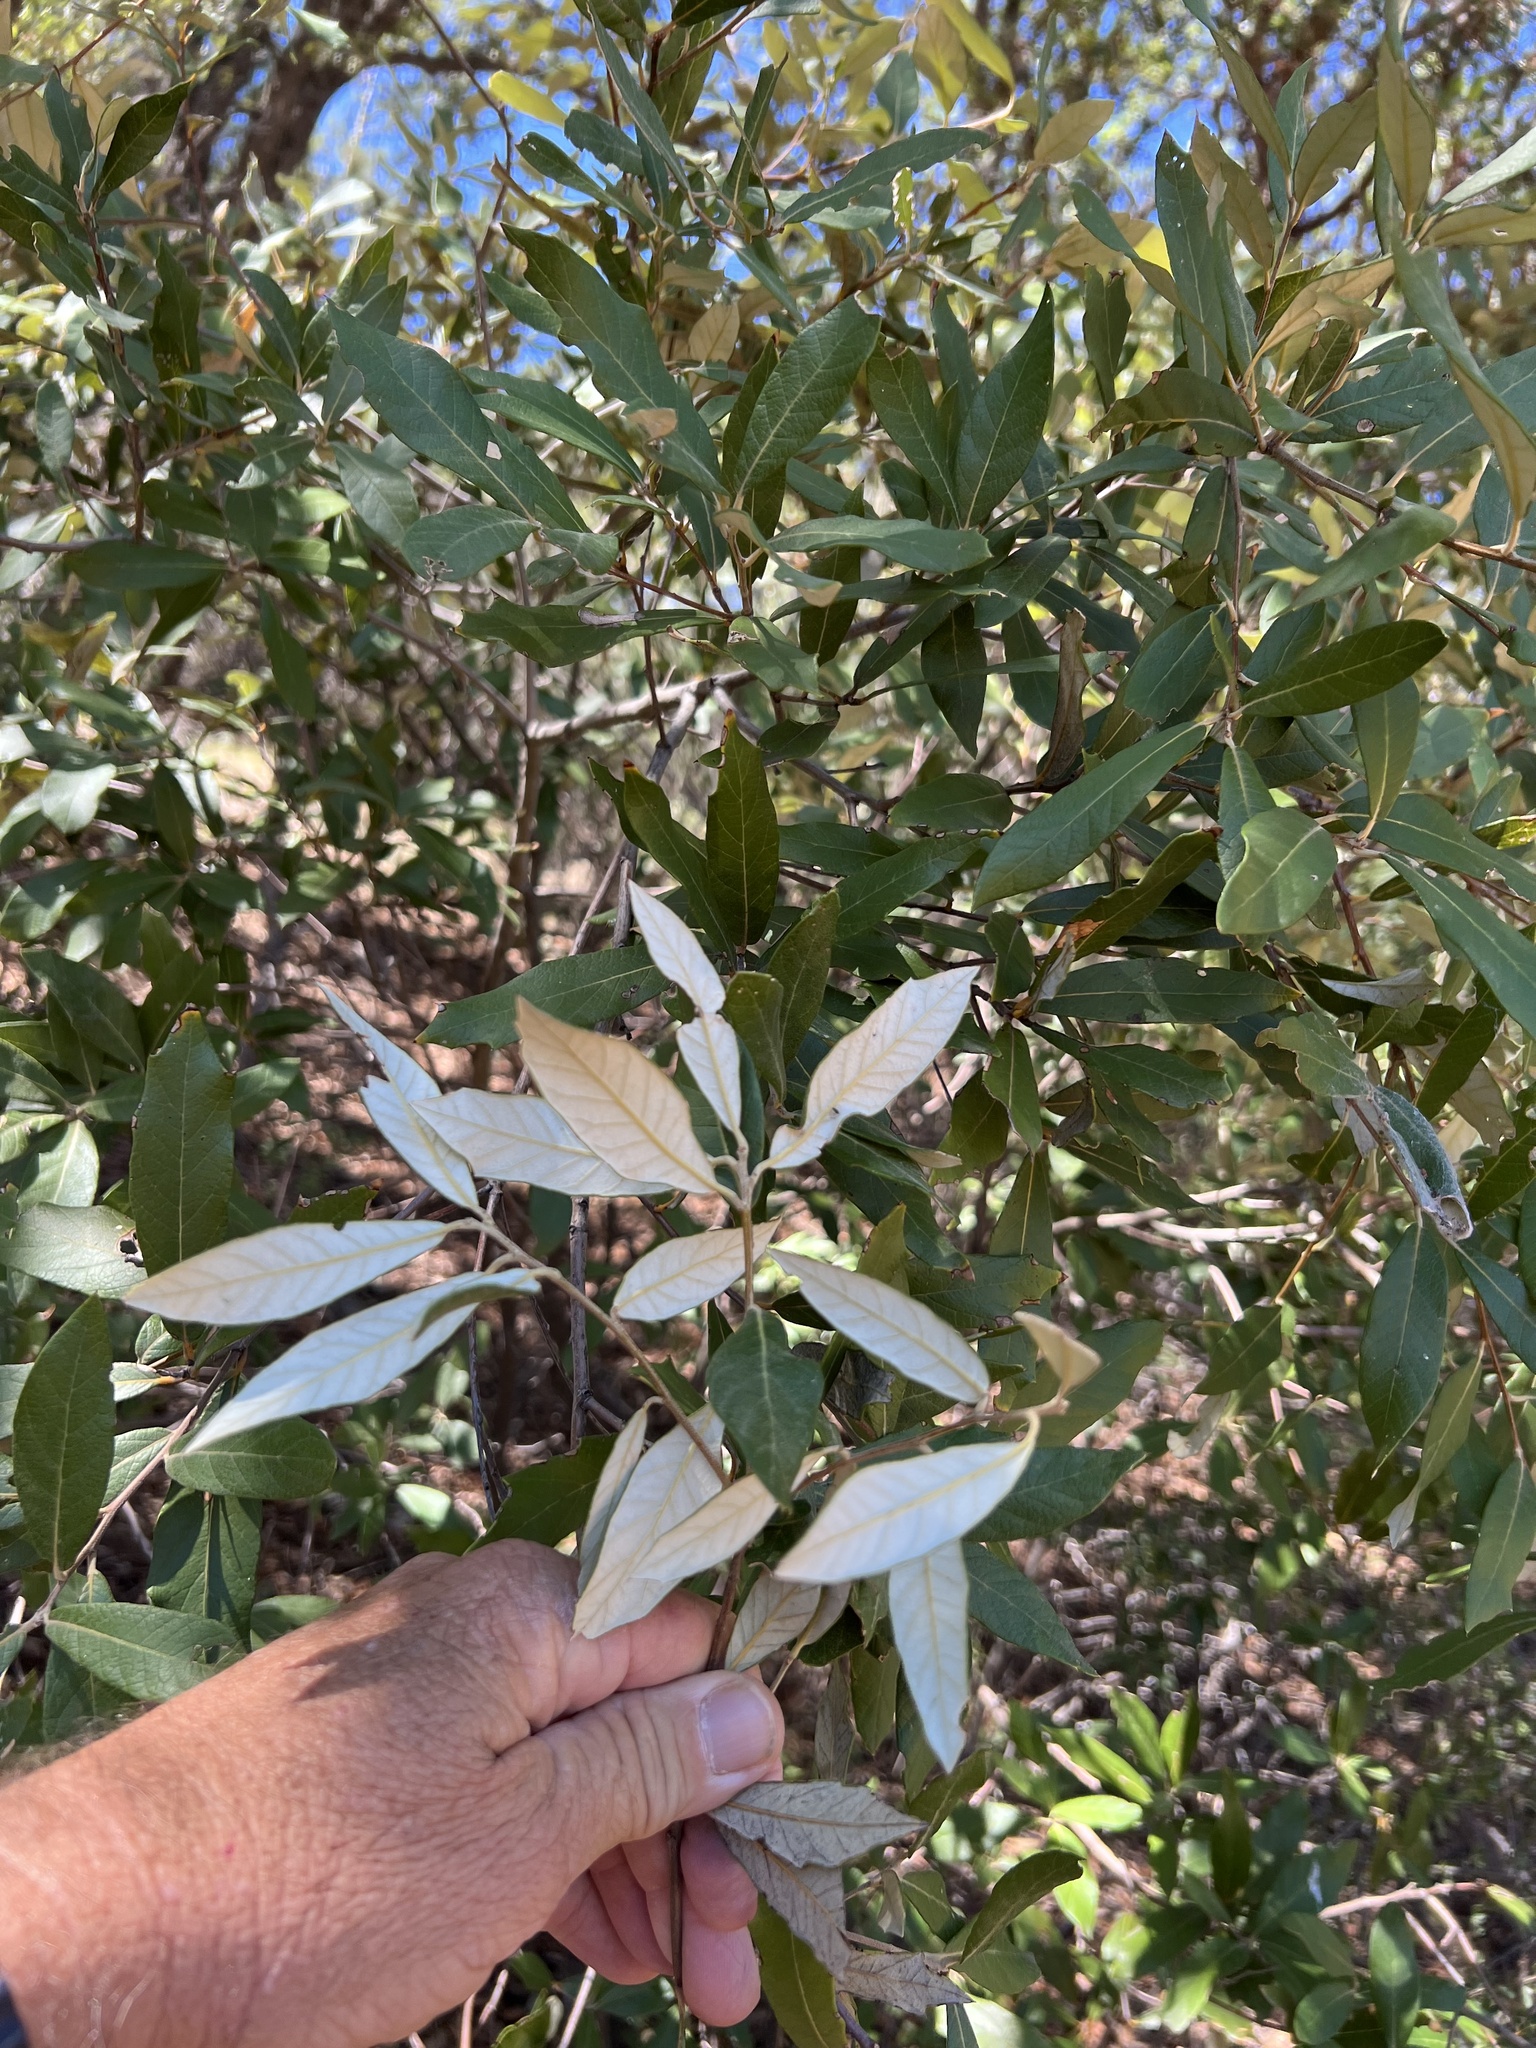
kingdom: Plantae
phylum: Tracheophyta
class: Magnoliopsida
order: Fagales
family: Fagaceae
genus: Quercus
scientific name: Quercus hypoleucoides
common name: Silverleaf oak
